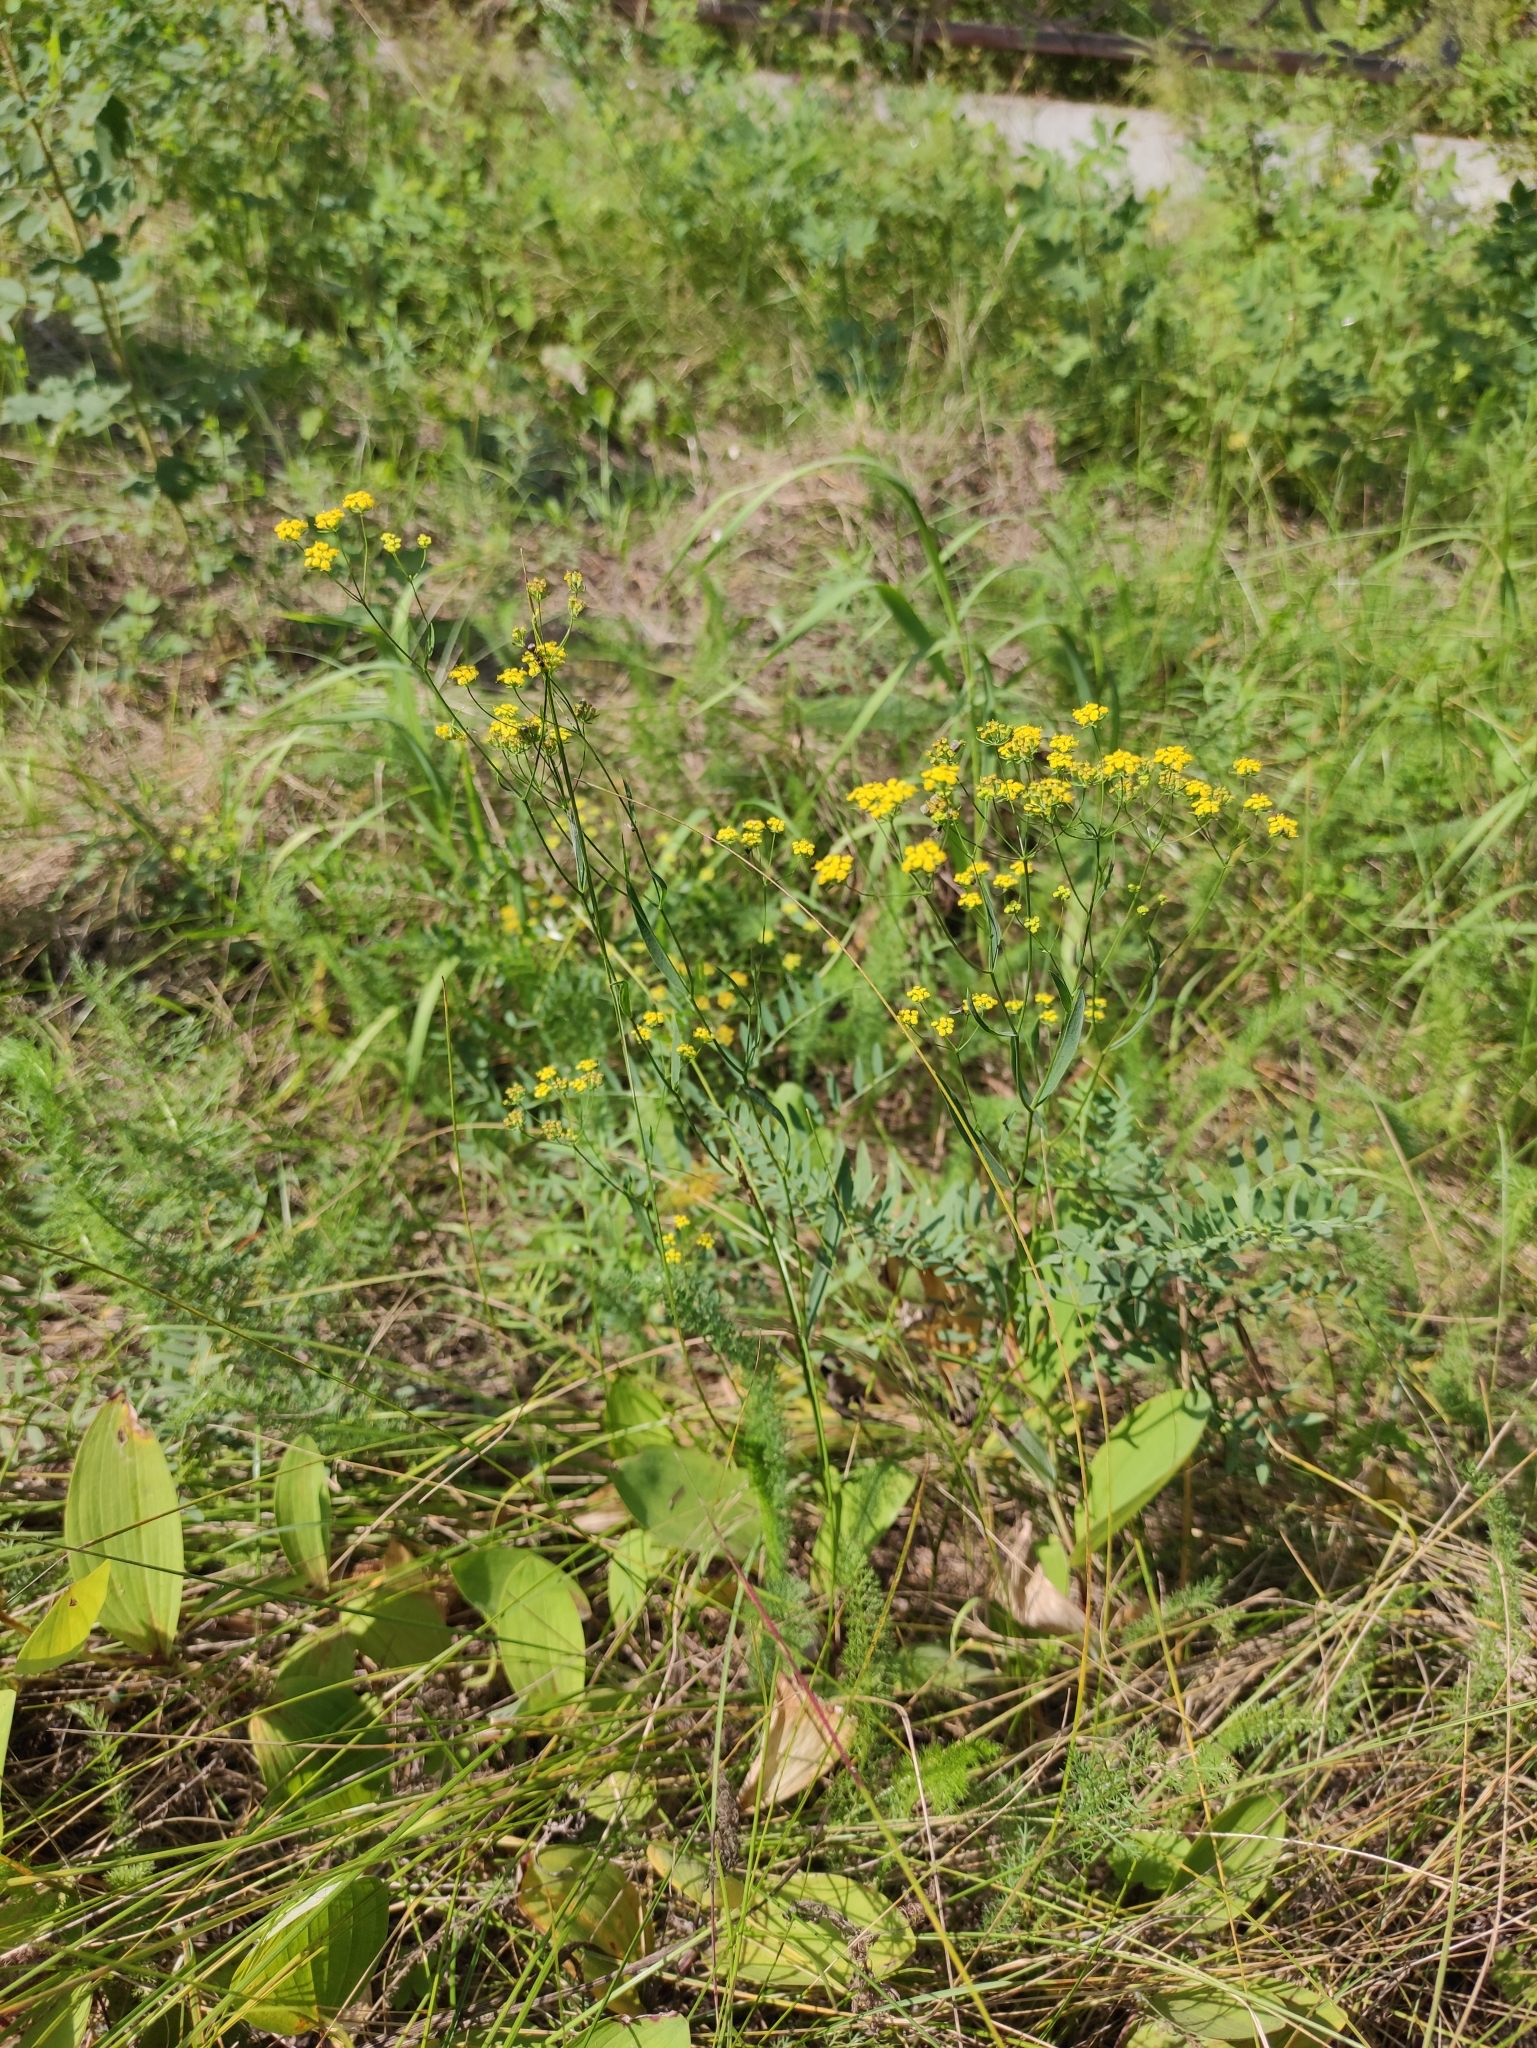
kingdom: Plantae
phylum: Tracheophyta
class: Magnoliopsida
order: Apiales
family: Apiaceae
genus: Bupleurum
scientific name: Bupleurum scorzonerifolium
